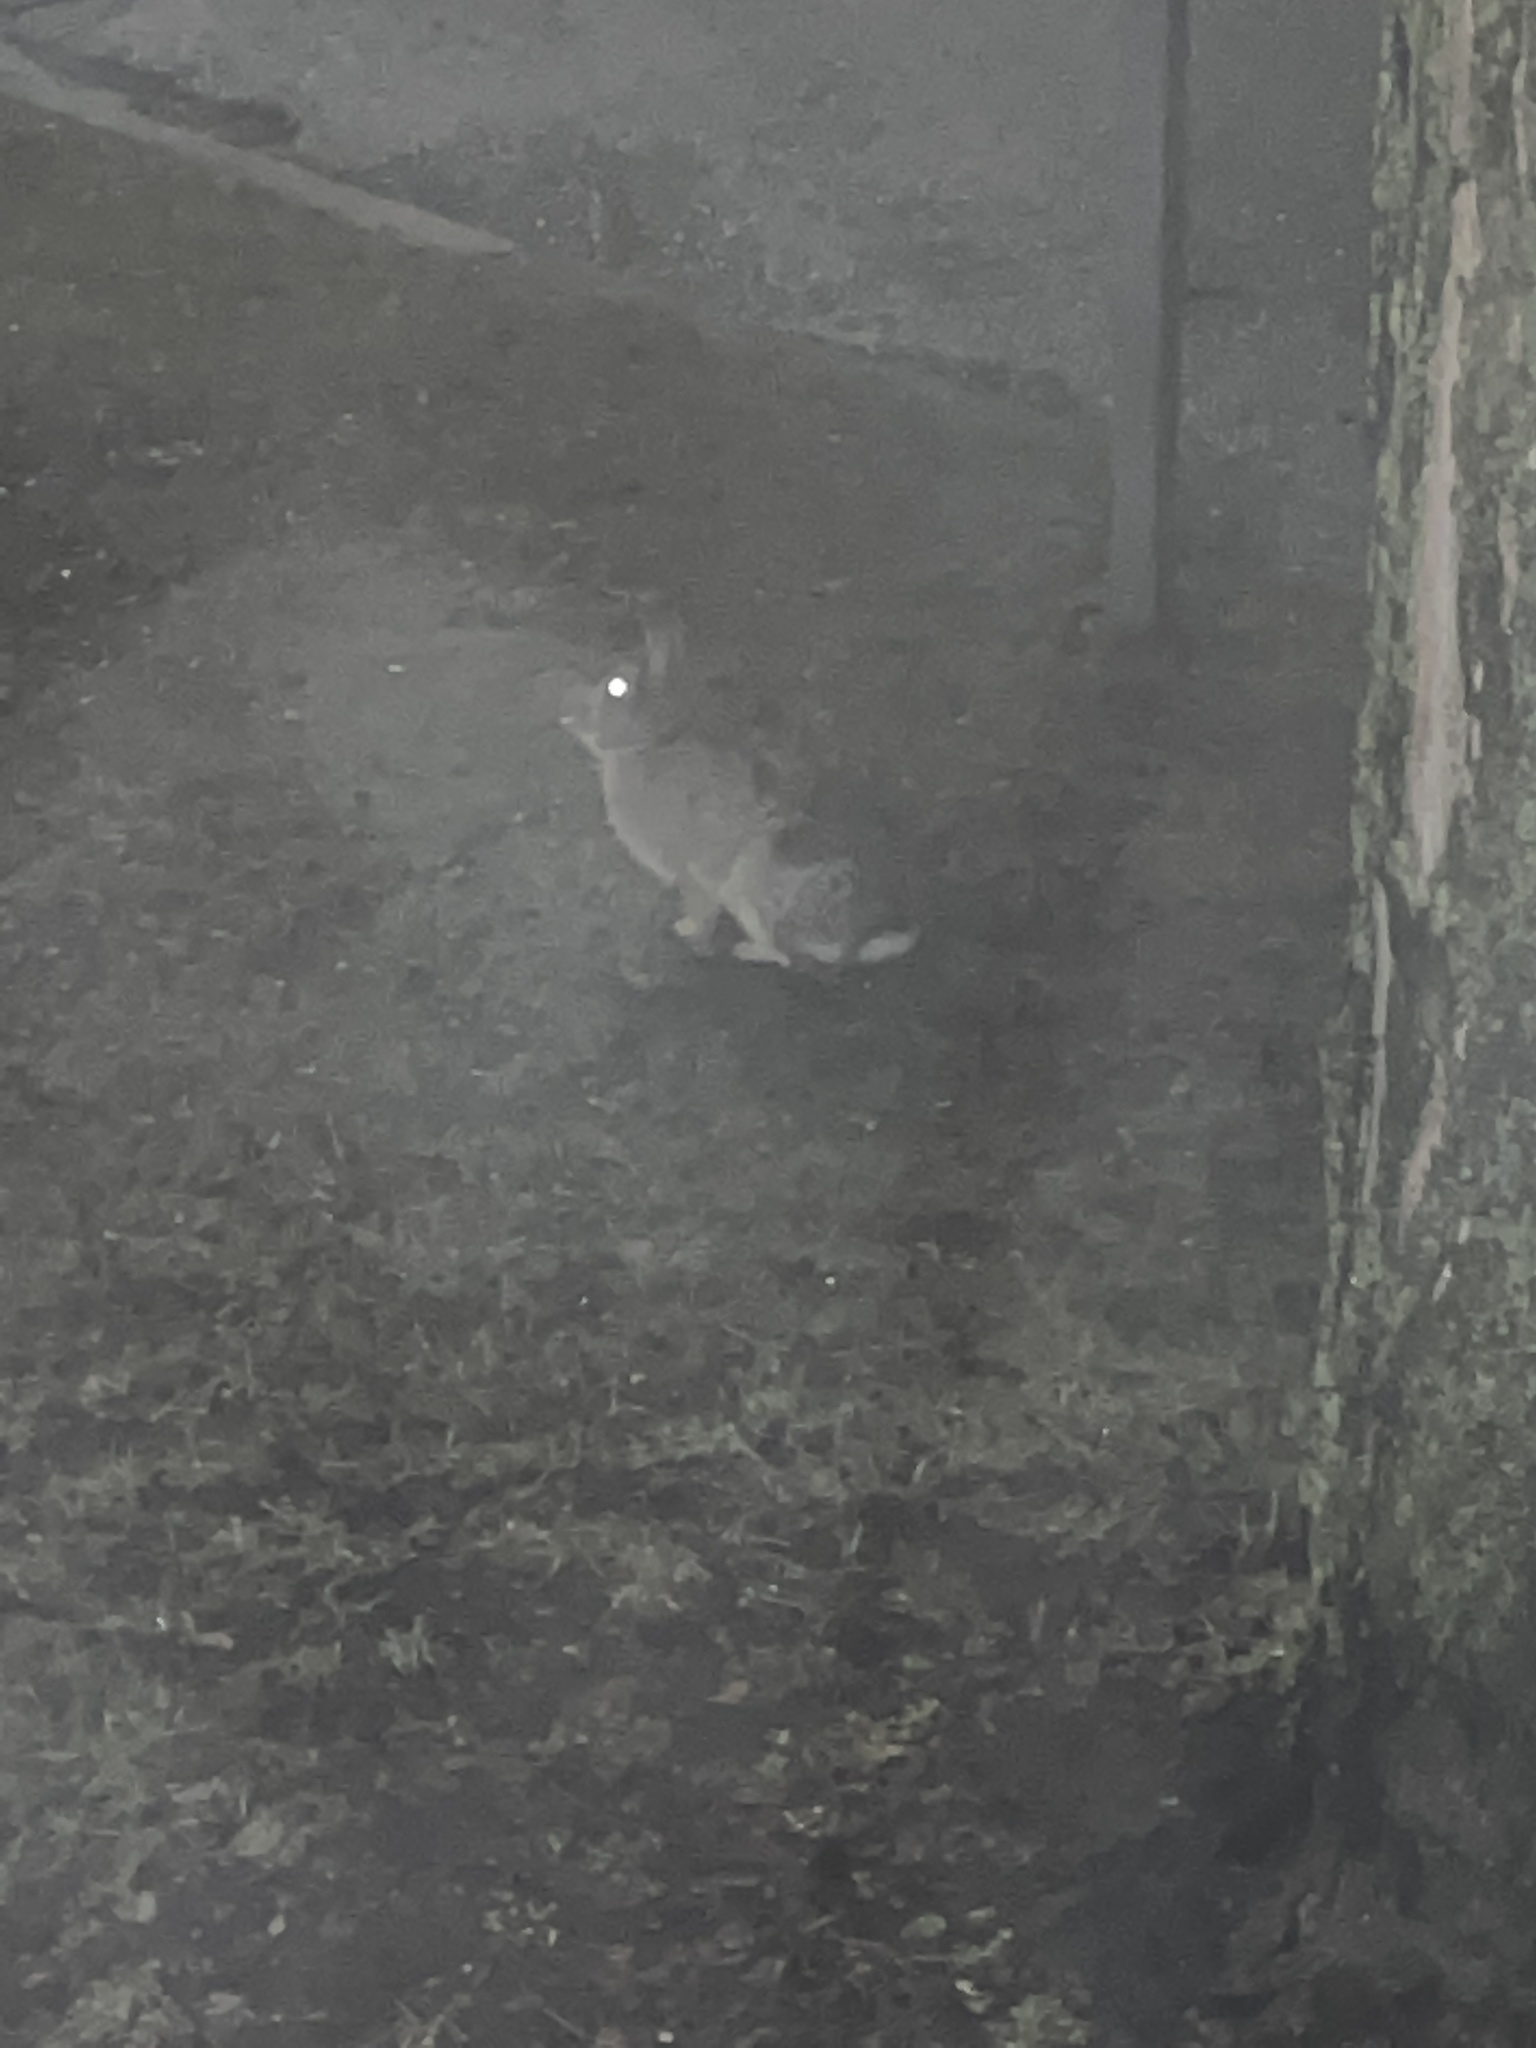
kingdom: Animalia
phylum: Chordata
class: Mammalia
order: Lagomorpha
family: Leporidae
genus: Sylvilagus
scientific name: Sylvilagus floridanus
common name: Eastern cottontail
